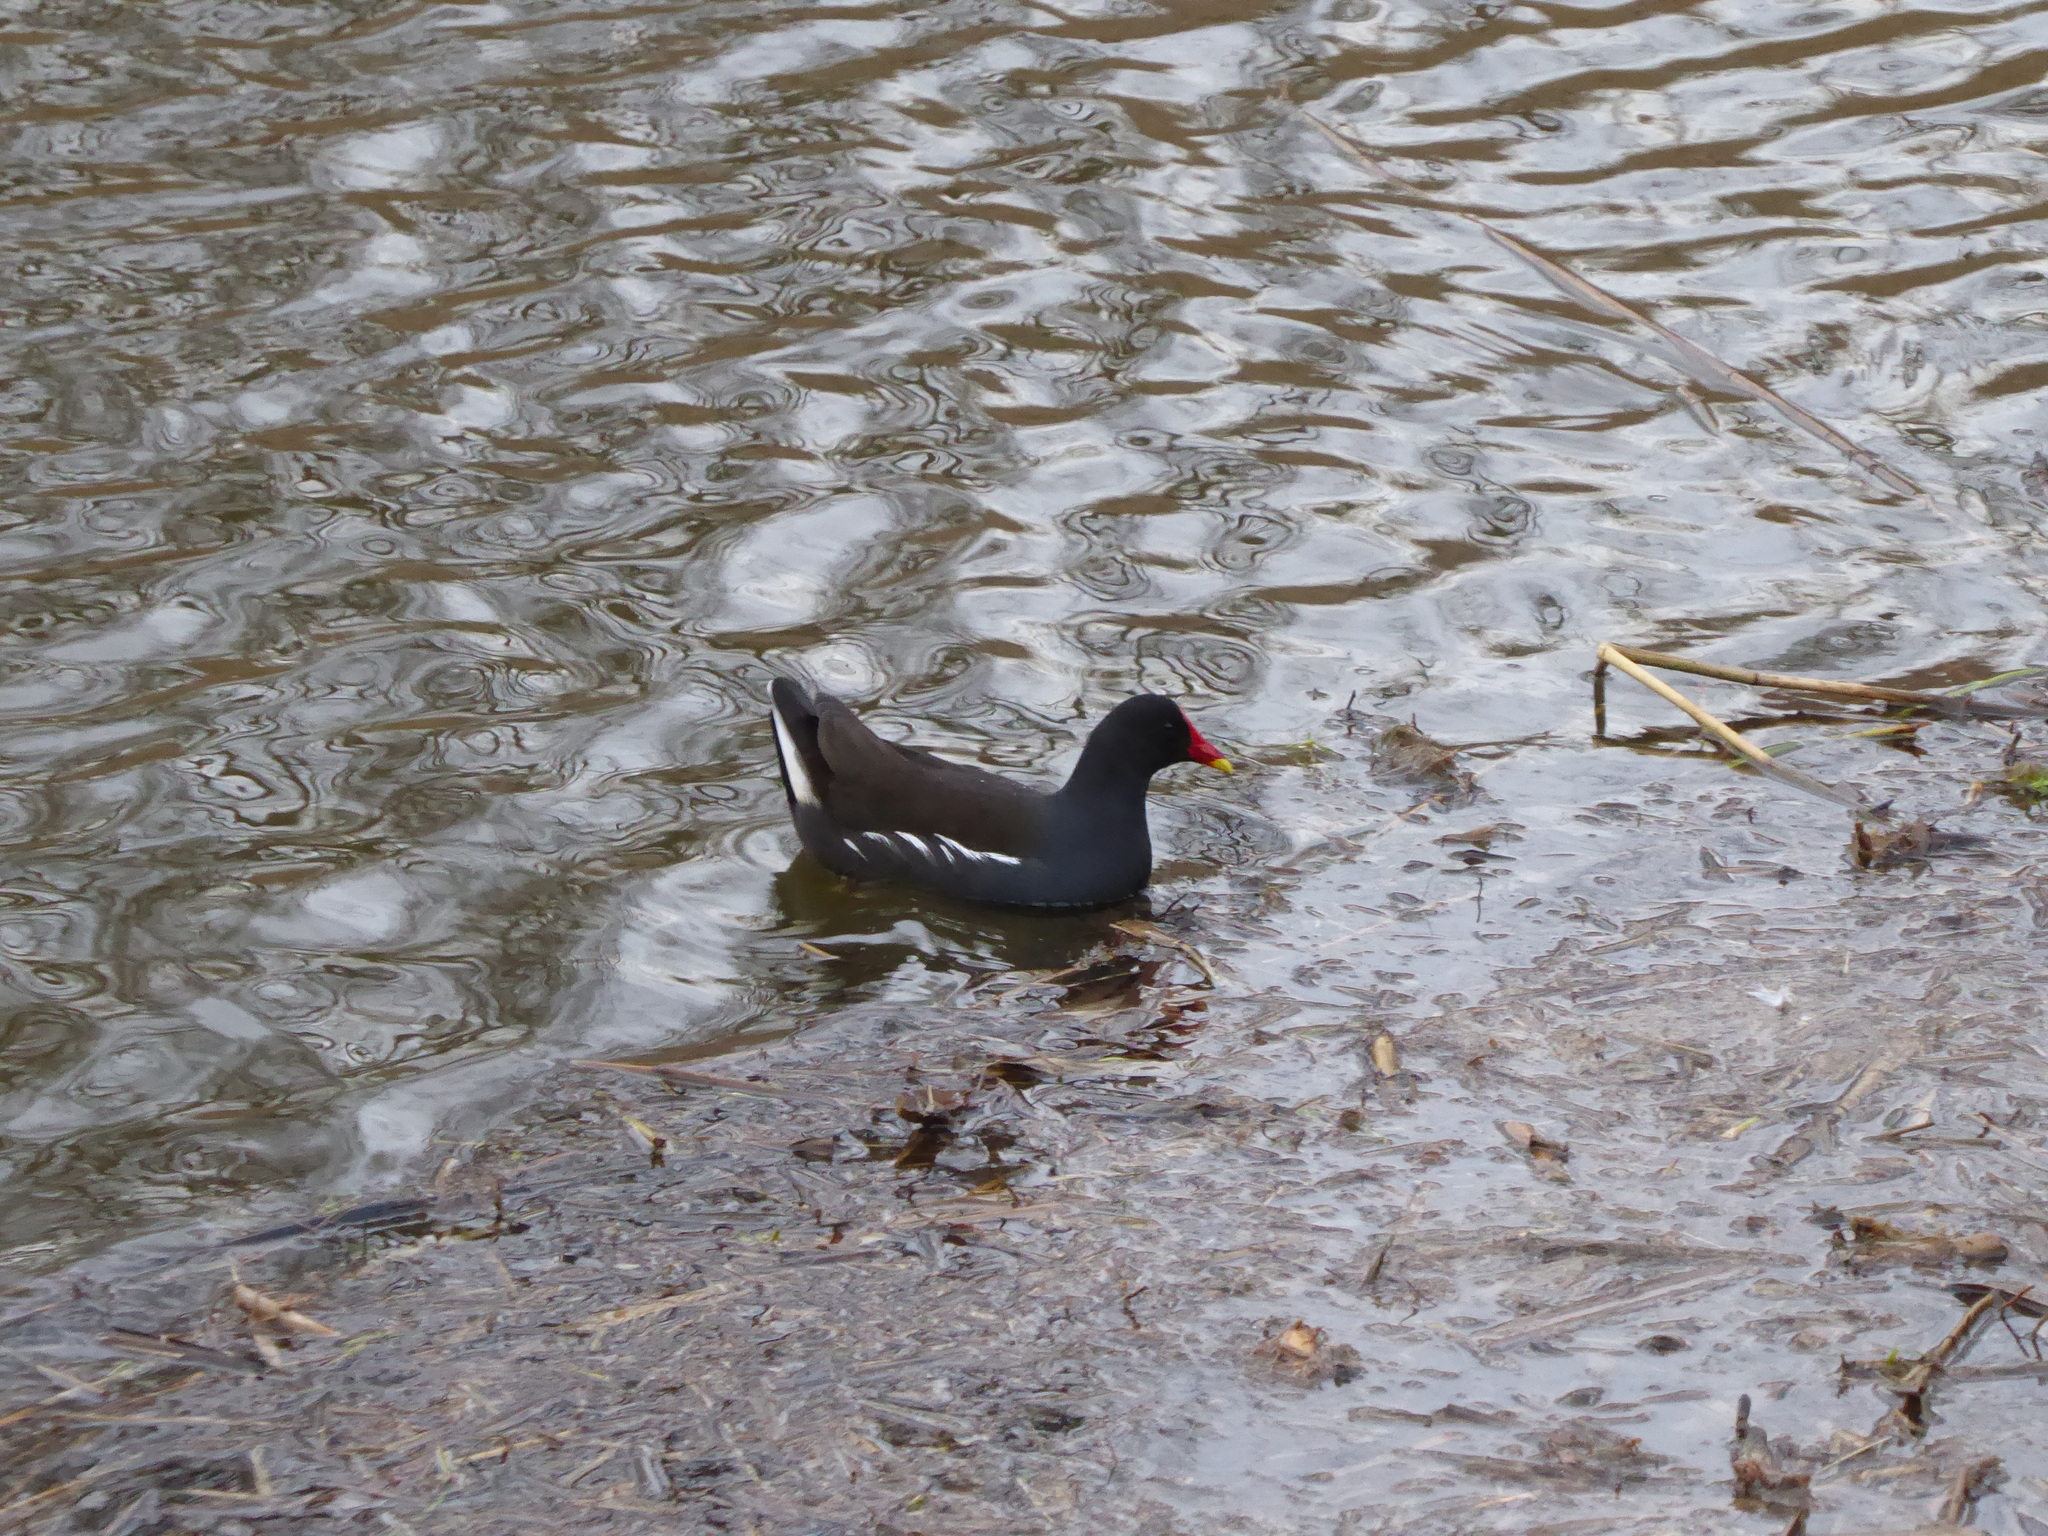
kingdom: Animalia
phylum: Chordata
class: Aves
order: Gruiformes
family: Rallidae
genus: Gallinula
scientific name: Gallinula chloropus
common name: Common moorhen
